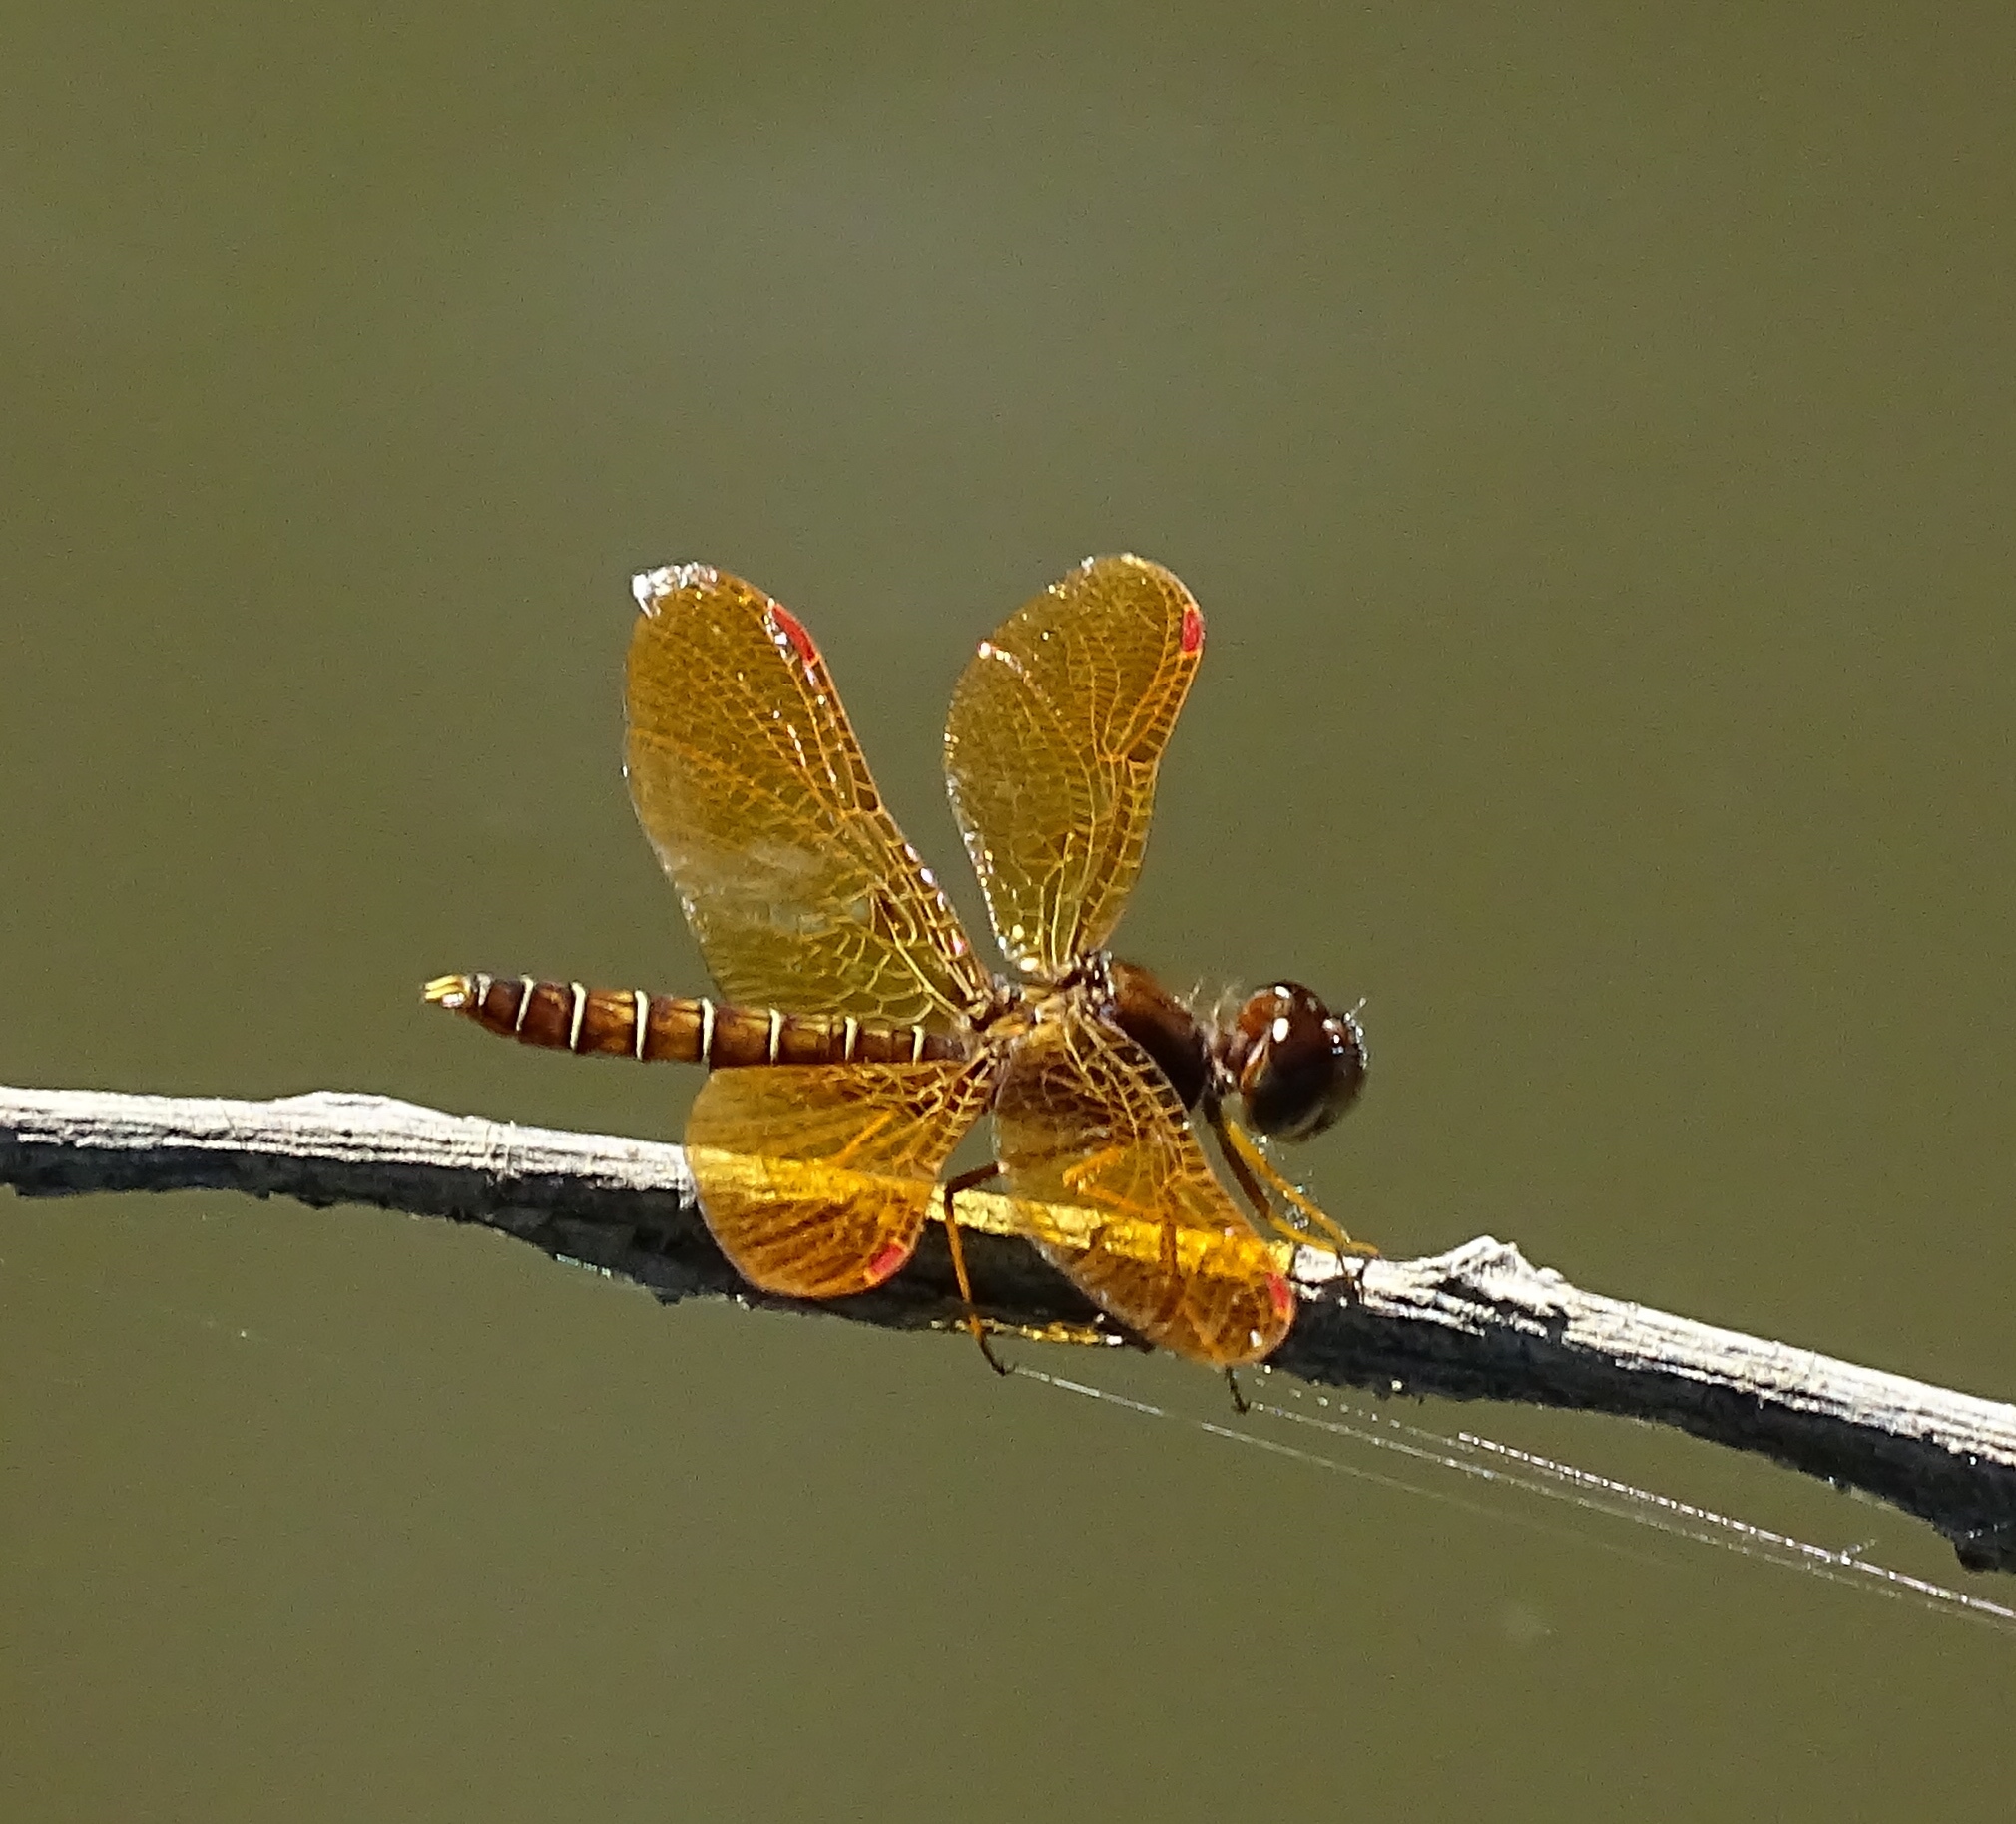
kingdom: Animalia
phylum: Arthropoda
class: Insecta
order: Odonata
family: Libellulidae
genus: Perithemis
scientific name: Perithemis tenera
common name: Eastern amberwing
